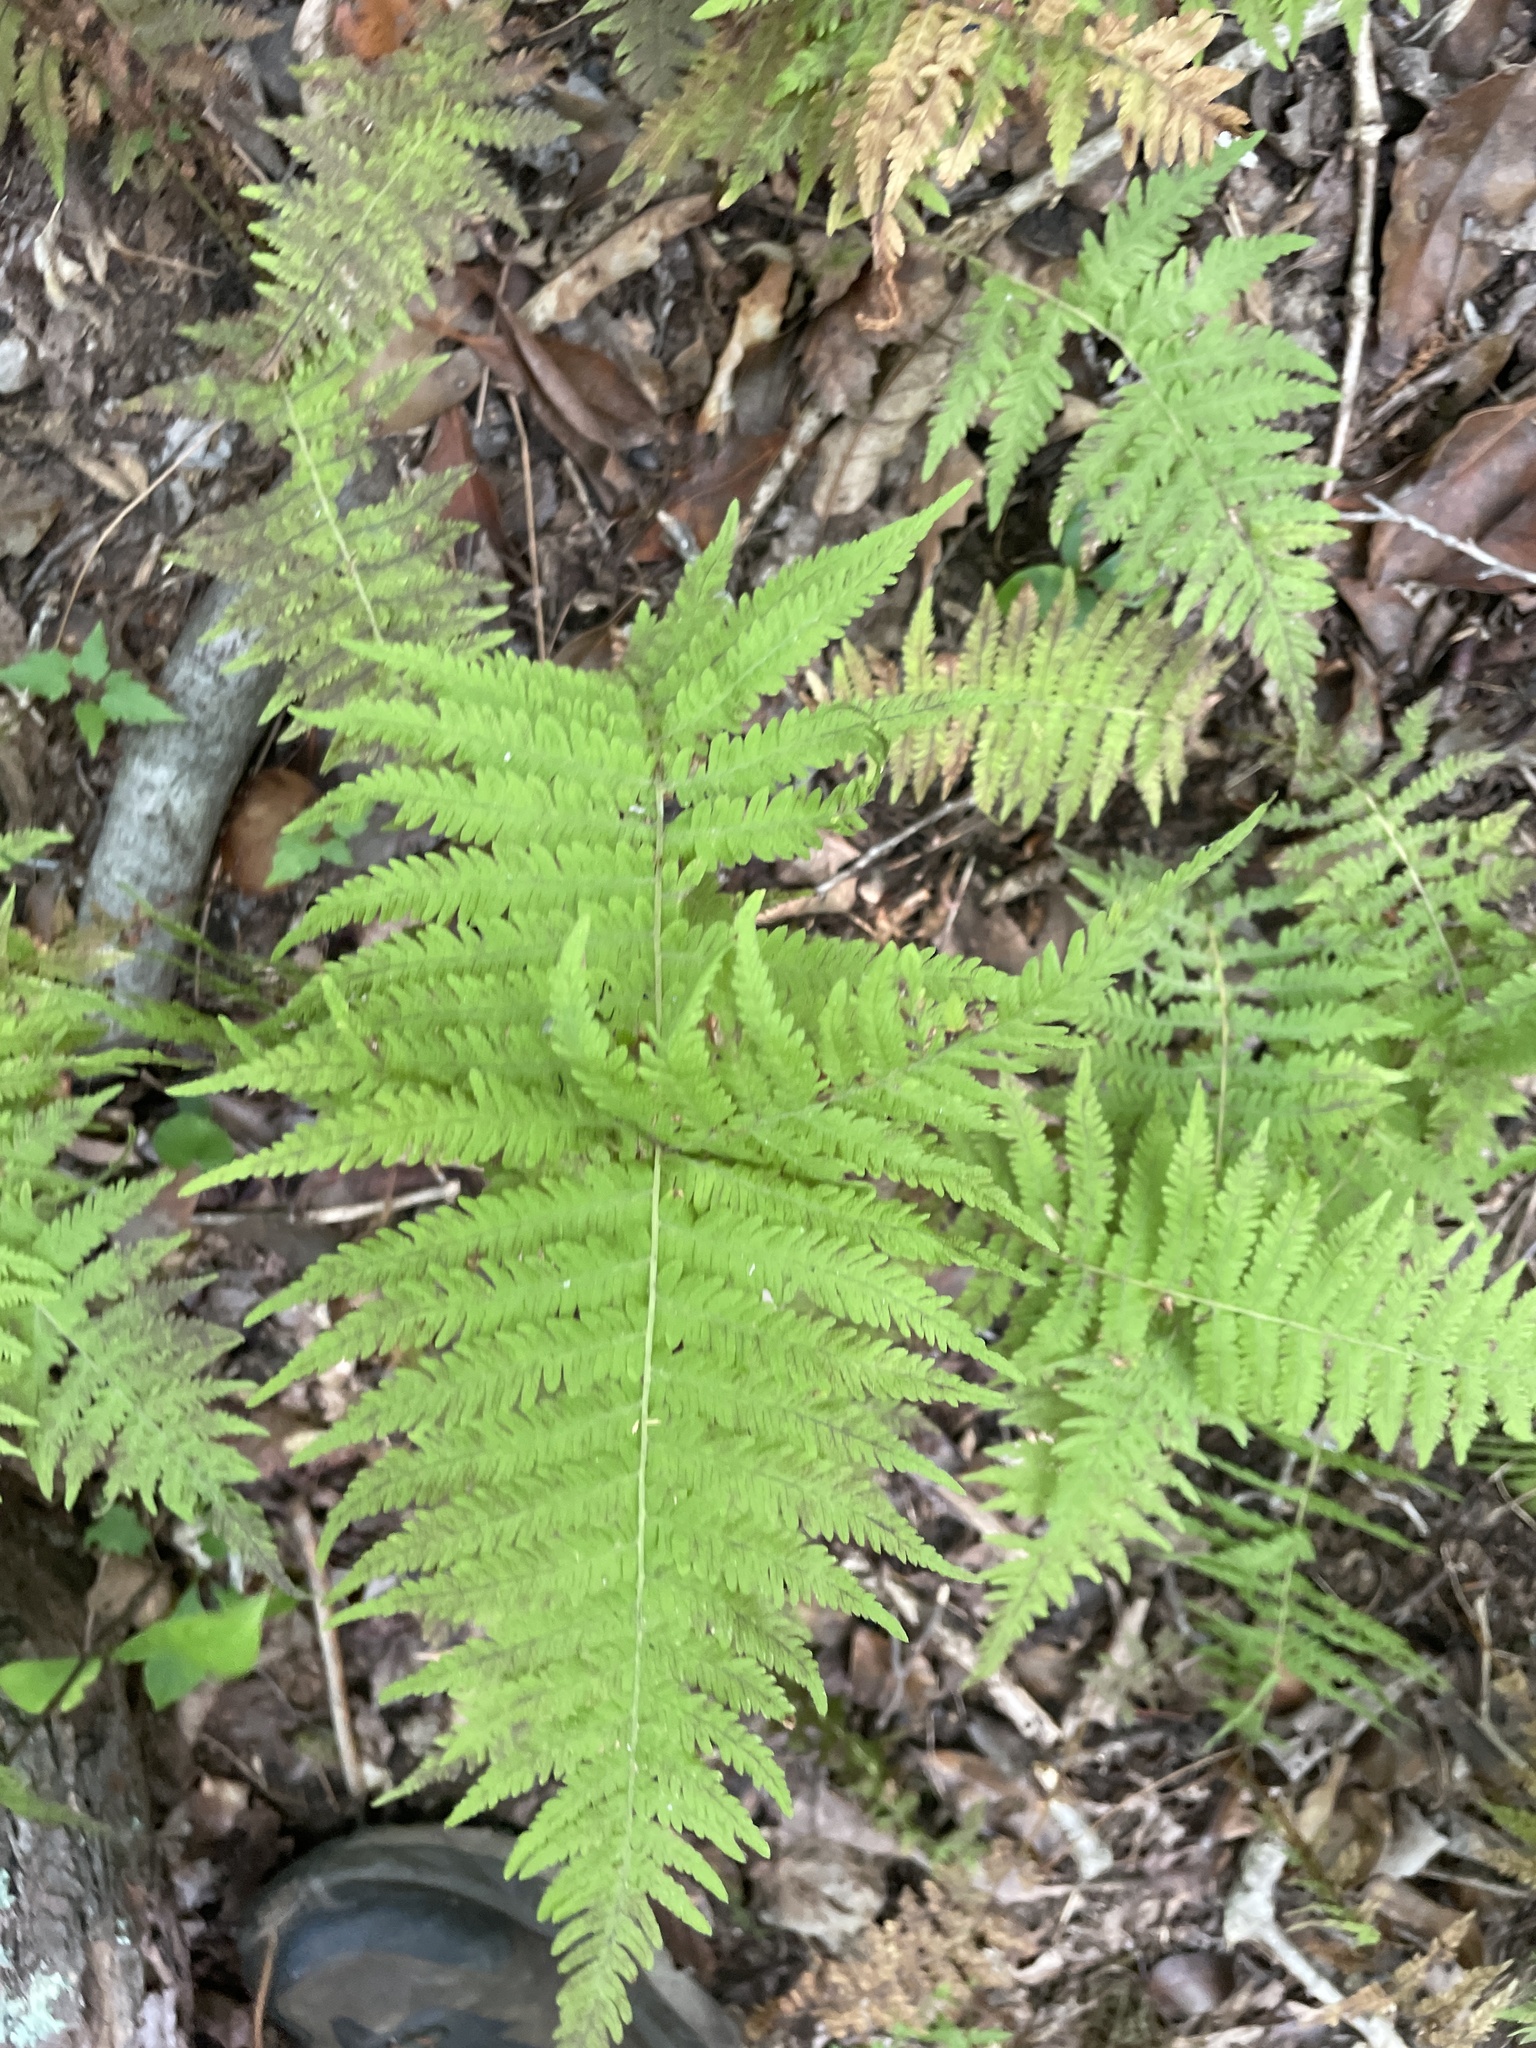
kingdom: Plantae
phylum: Tracheophyta
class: Polypodiopsida
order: Polypodiales
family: Thelypteridaceae
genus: Amauropelta
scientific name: Amauropelta noveboracensis
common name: New york fern
